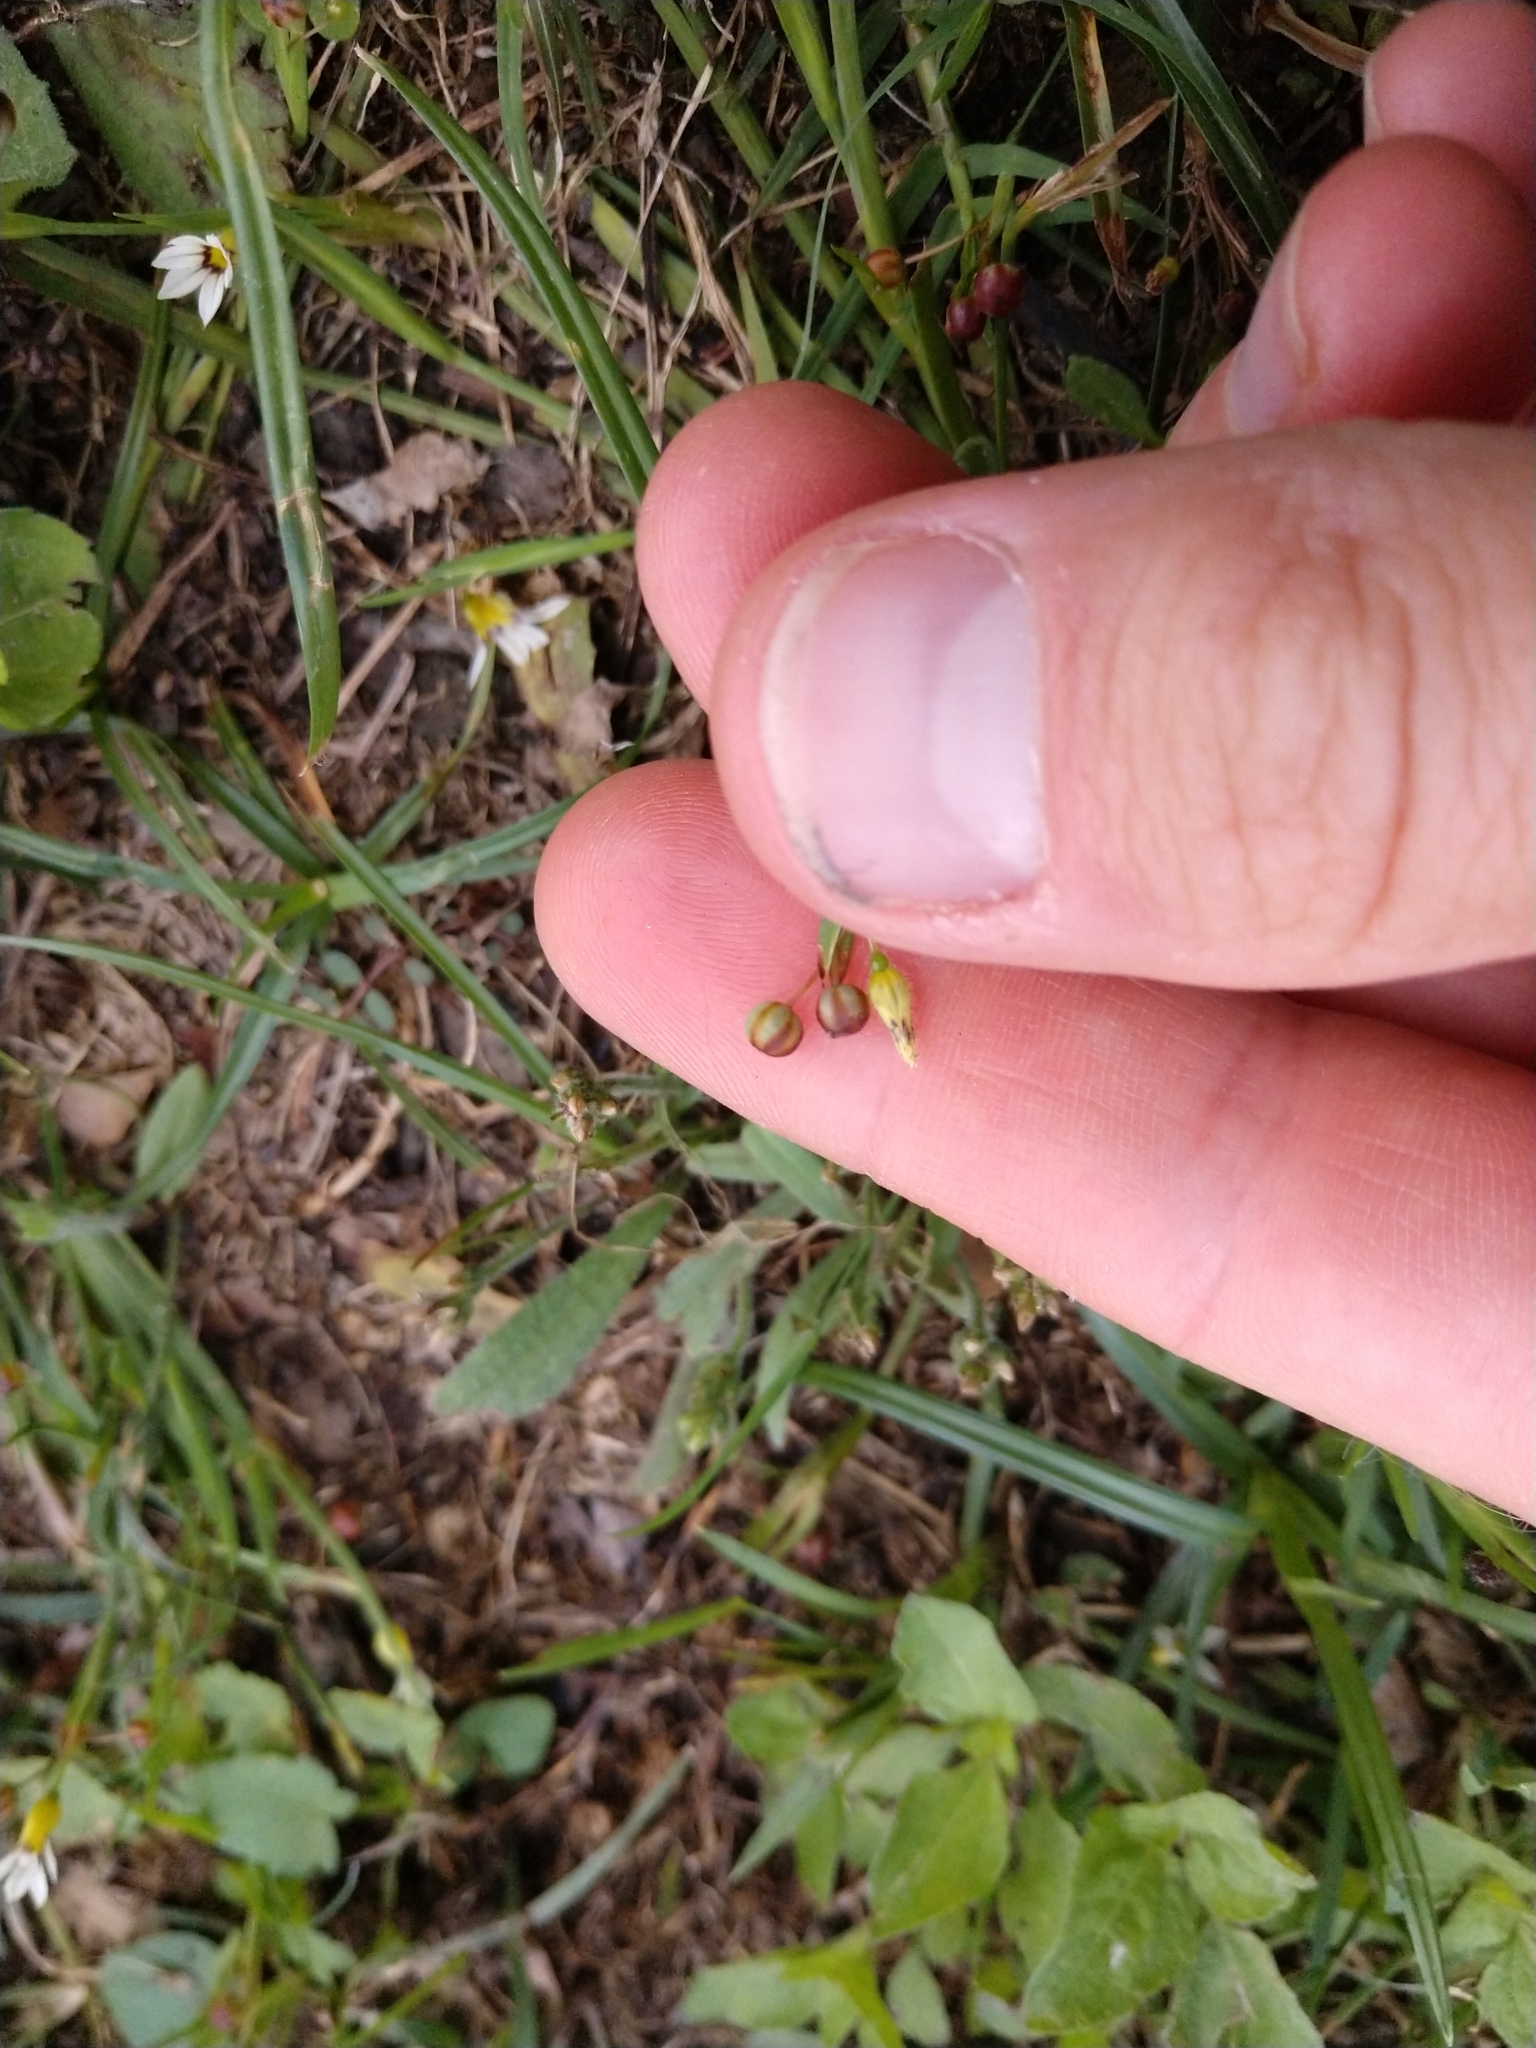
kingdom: Plantae
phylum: Tracheophyta
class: Liliopsida
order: Asparagales
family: Iridaceae
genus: Sisyrinchium
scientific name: Sisyrinchium micranthum
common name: Bermuda pigroot
